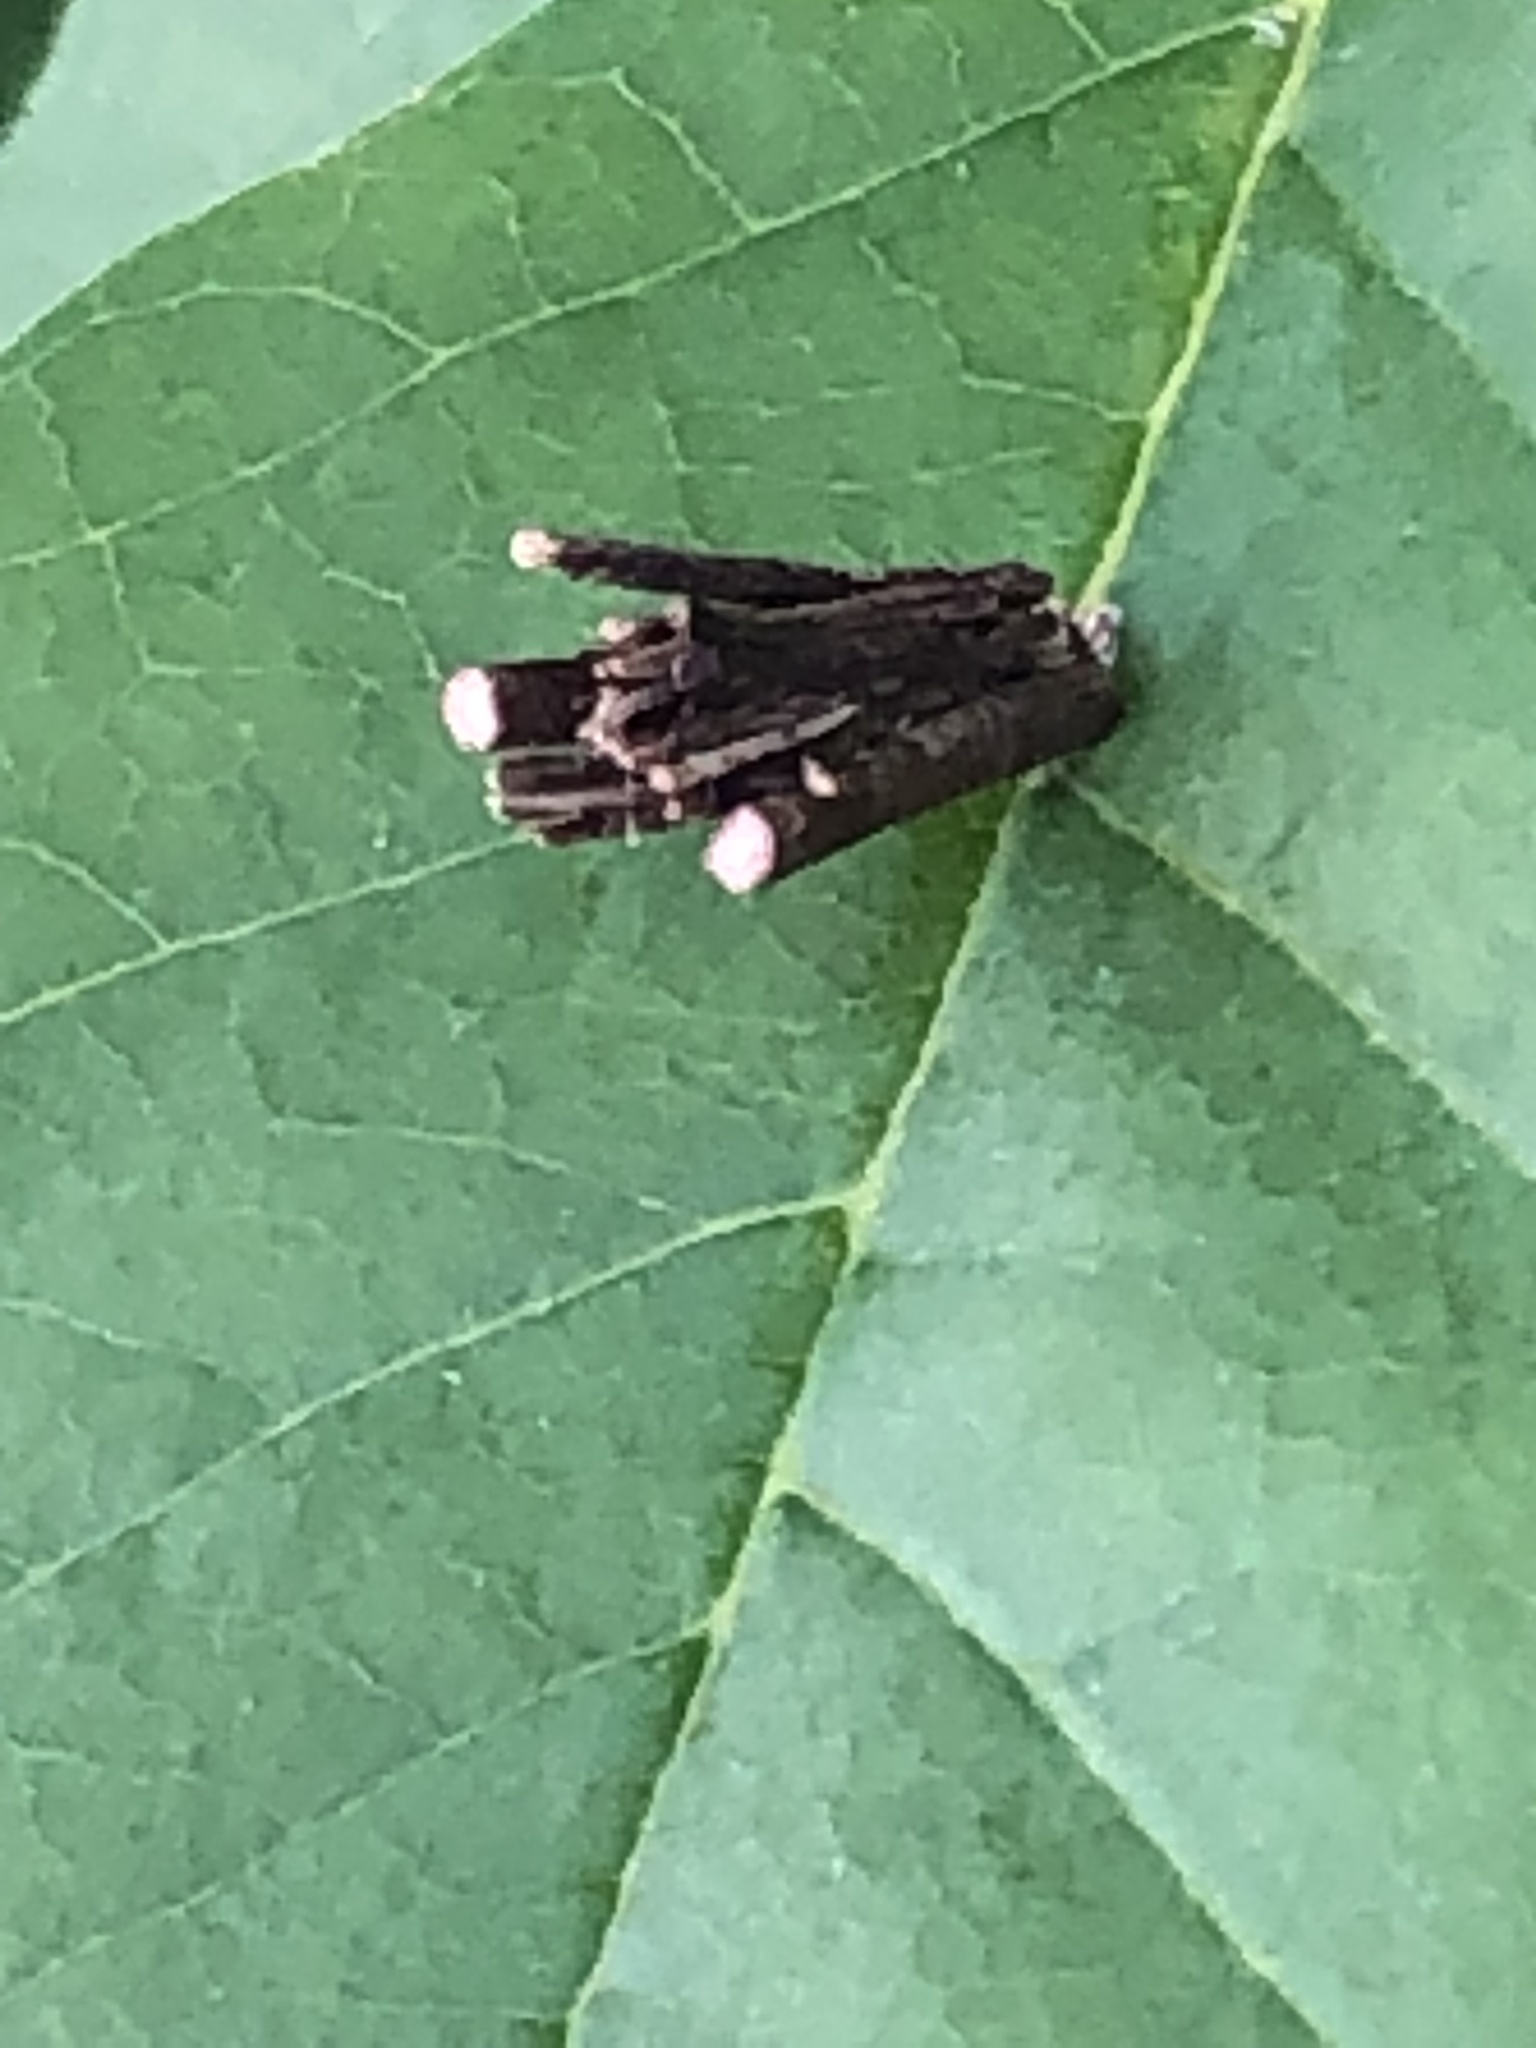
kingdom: Animalia
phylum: Arthropoda
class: Insecta
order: Lepidoptera
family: Psychidae
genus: Psyche
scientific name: Psyche casta
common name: Common sweep
